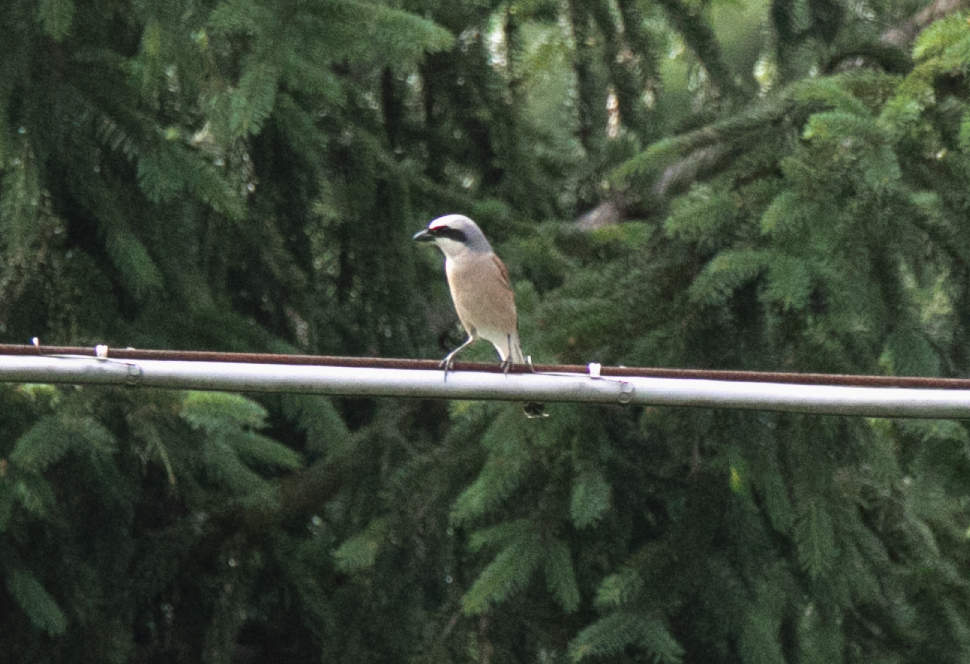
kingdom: Animalia
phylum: Chordata
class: Aves
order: Passeriformes
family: Laniidae
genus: Lanius
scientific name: Lanius collurio
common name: Red-backed shrike
